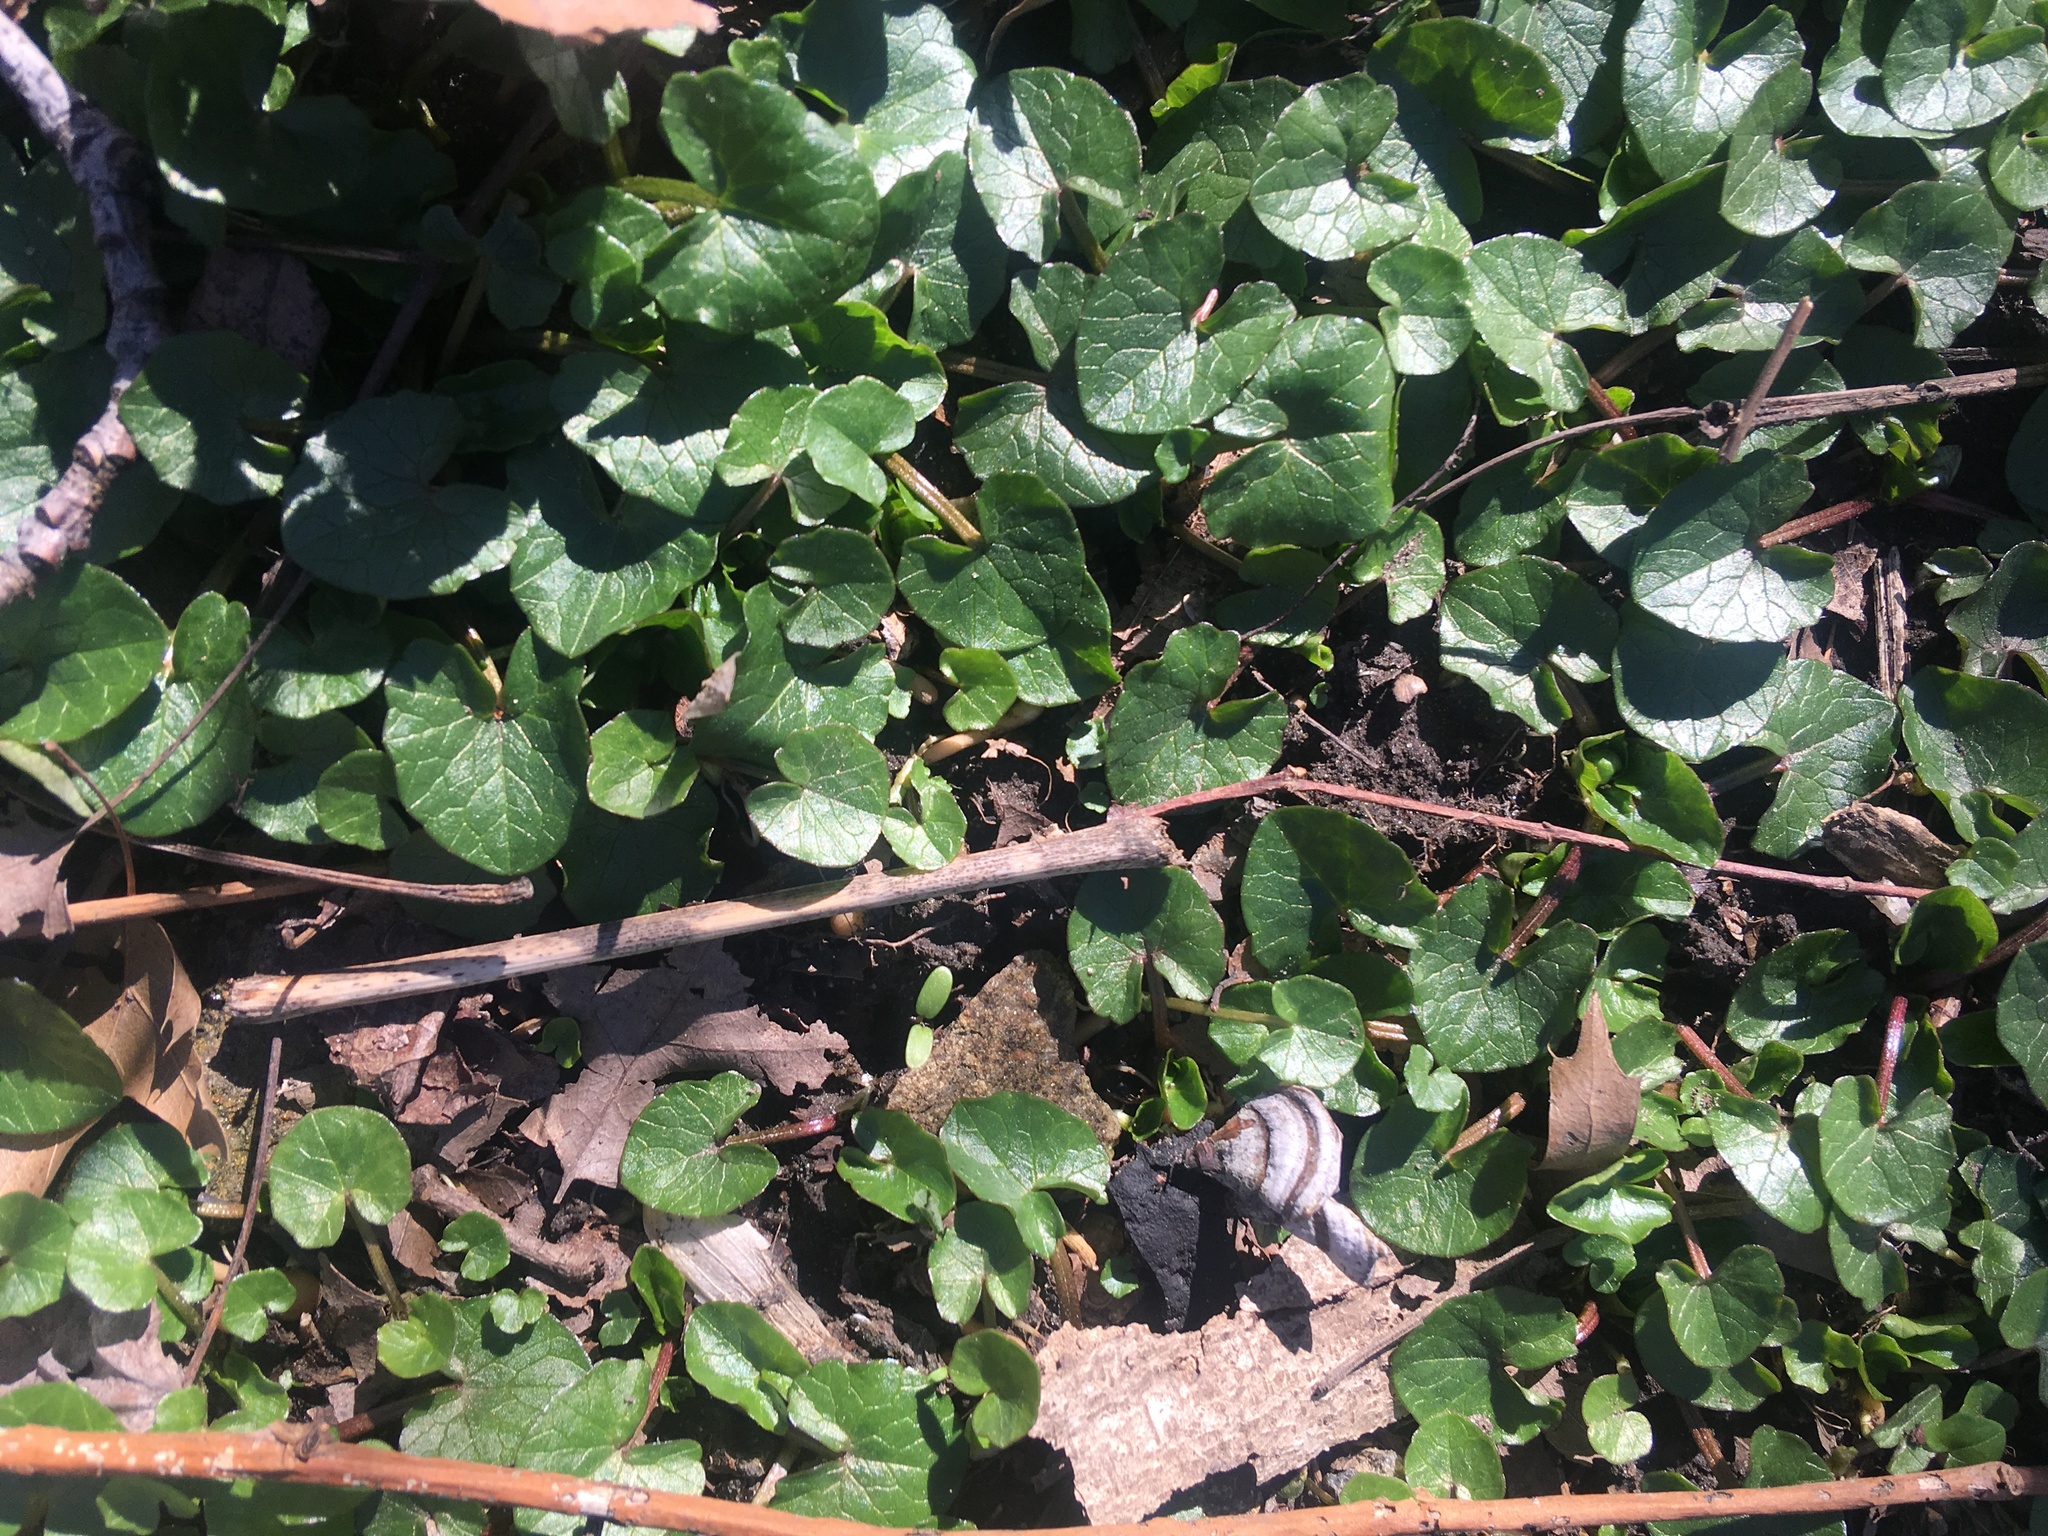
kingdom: Plantae
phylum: Tracheophyta
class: Magnoliopsida
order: Ranunculales
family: Ranunculaceae
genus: Ficaria
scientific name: Ficaria verna
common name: Lesser celandine
